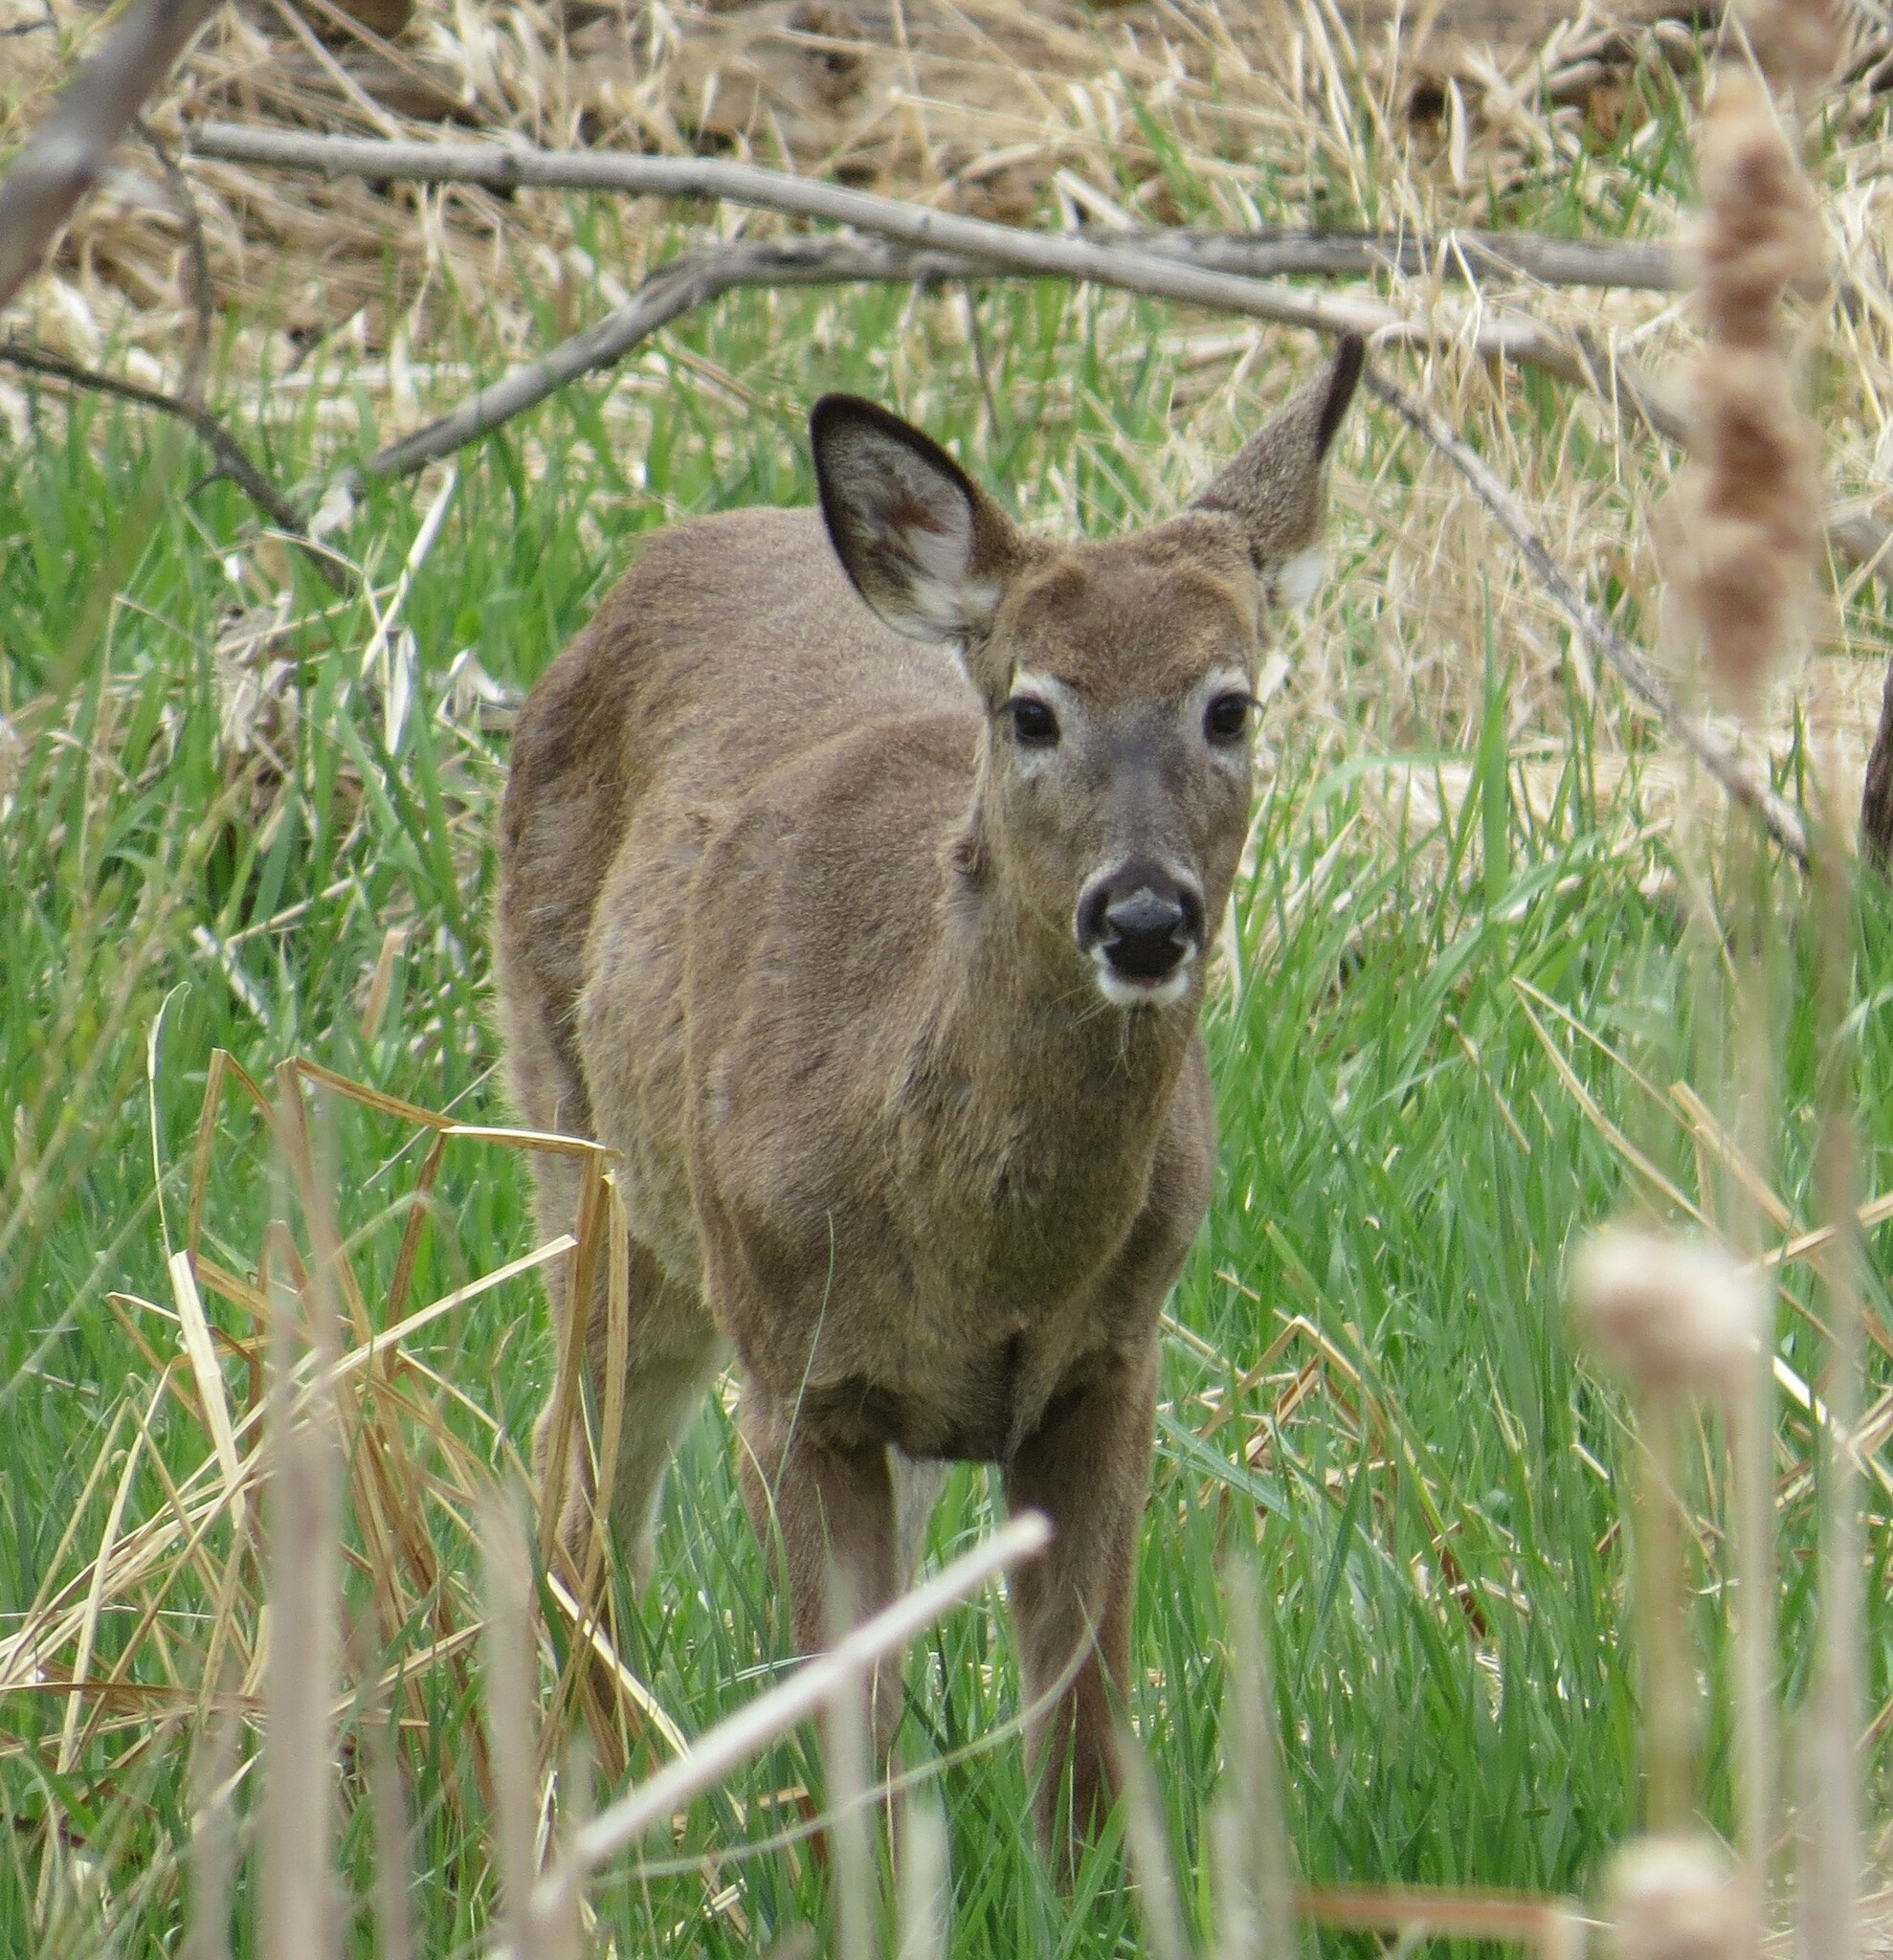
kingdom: Animalia
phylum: Chordata
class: Mammalia
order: Artiodactyla
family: Cervidae
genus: Odocoileus
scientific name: Odocoileus virginianus
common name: White-tailed deer
